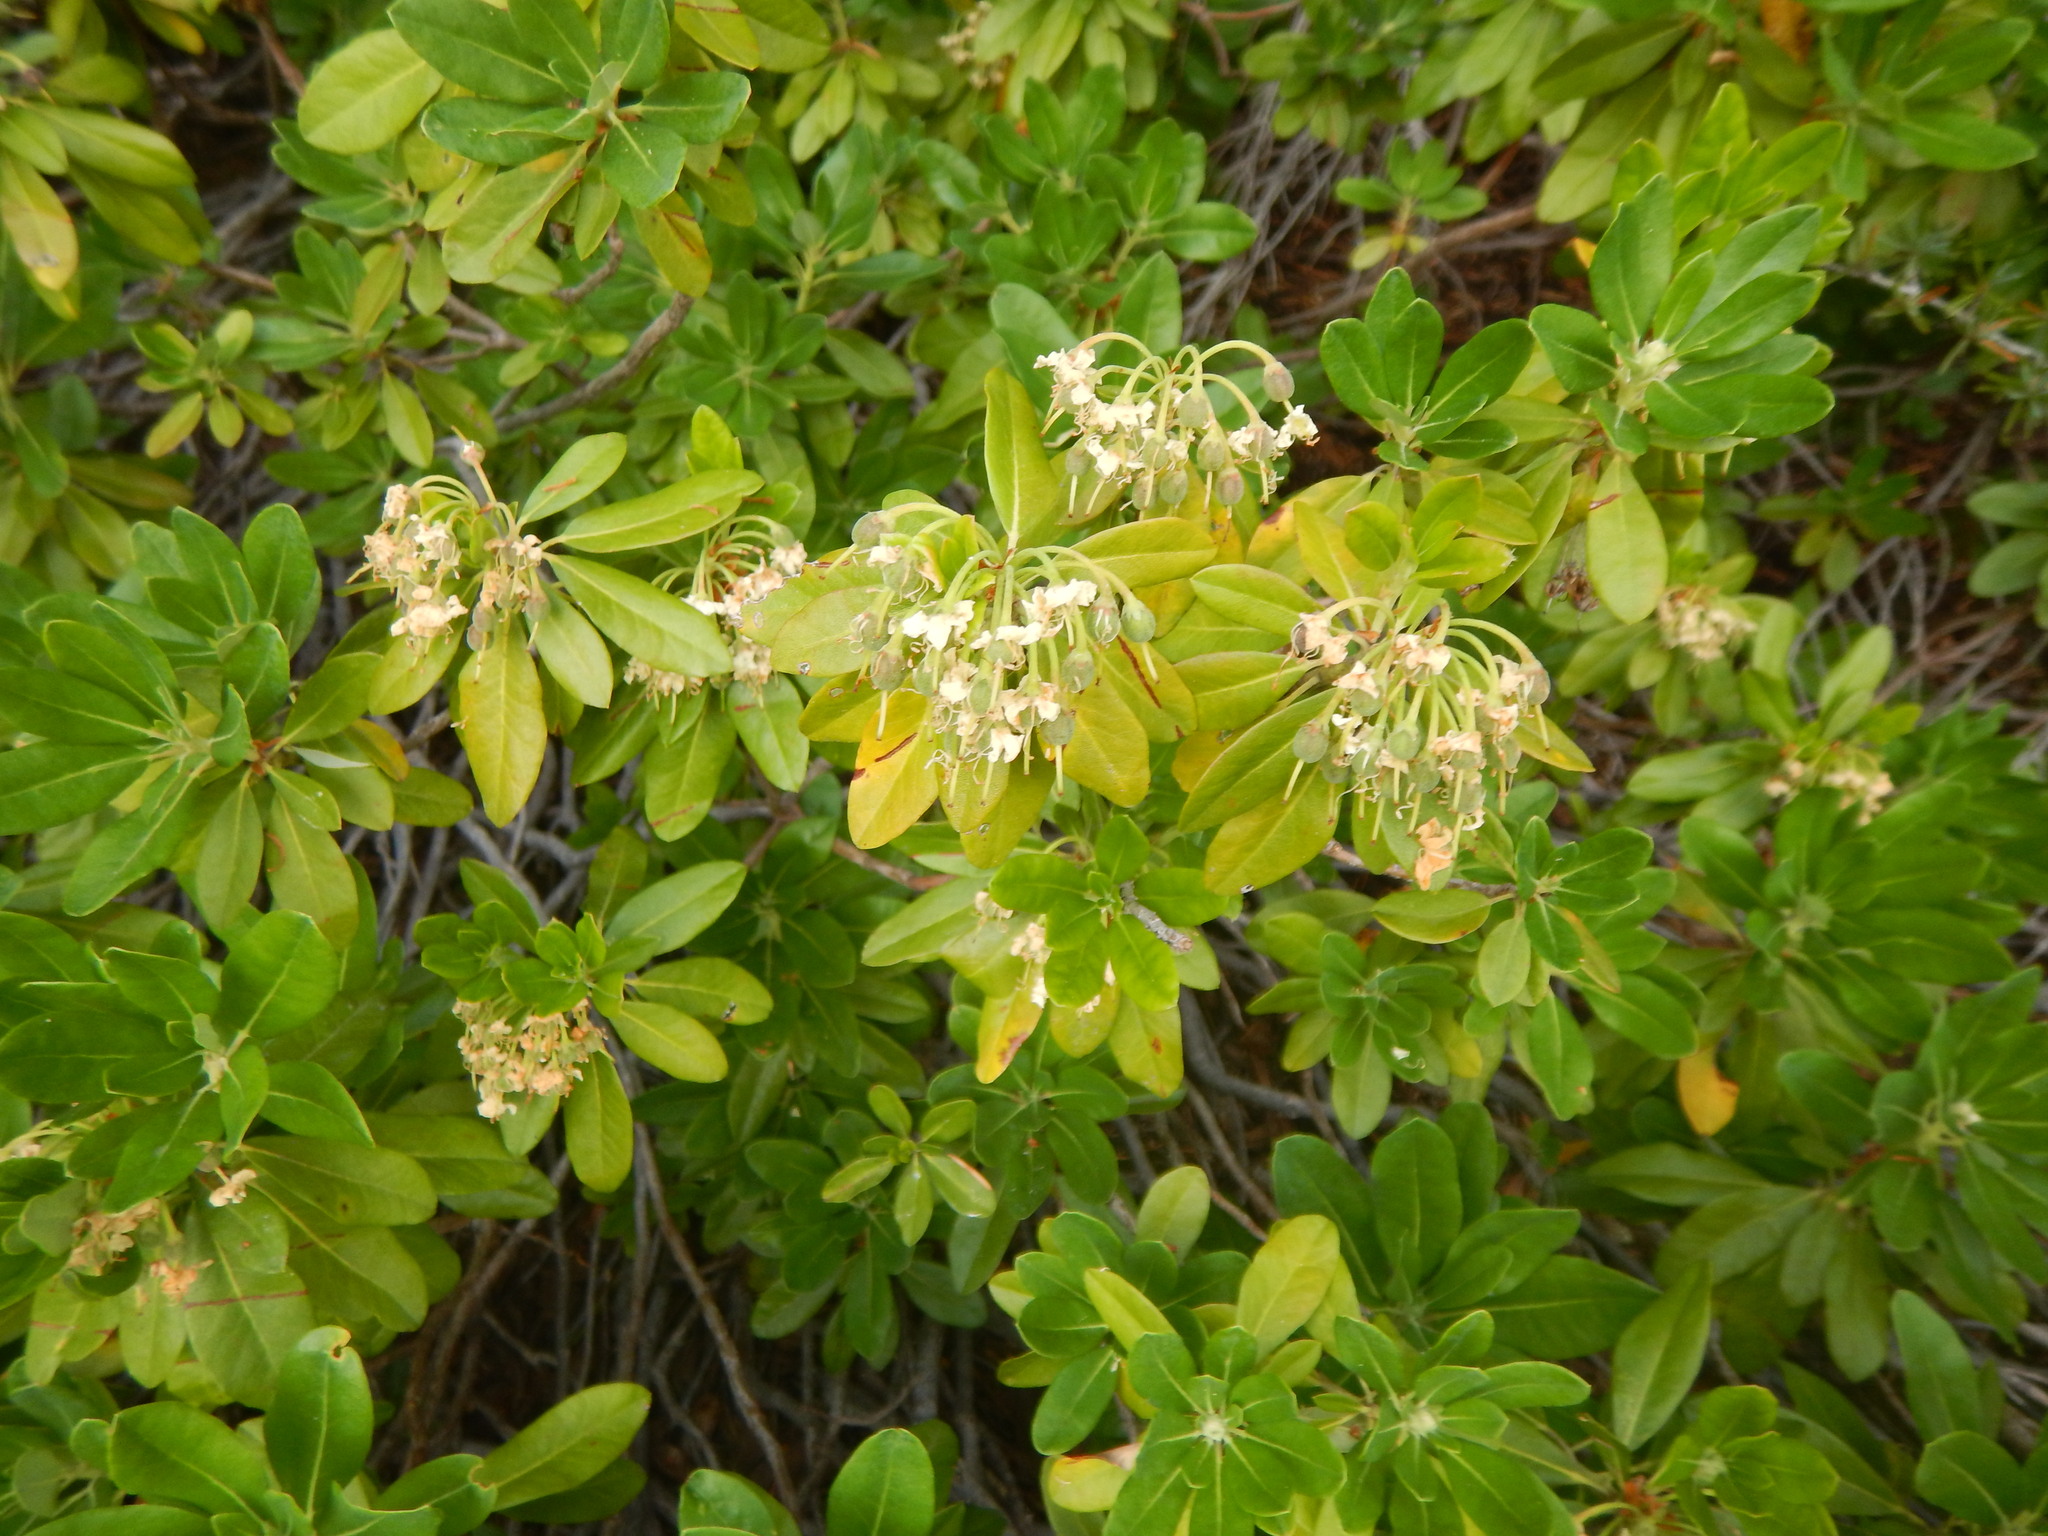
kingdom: Plantae
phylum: Tracheophyta
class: Magnoliopsida
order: Ericales
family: Ericaceae
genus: Rhododendron
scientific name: Rhododendron columbianum
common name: Western labrador tea
